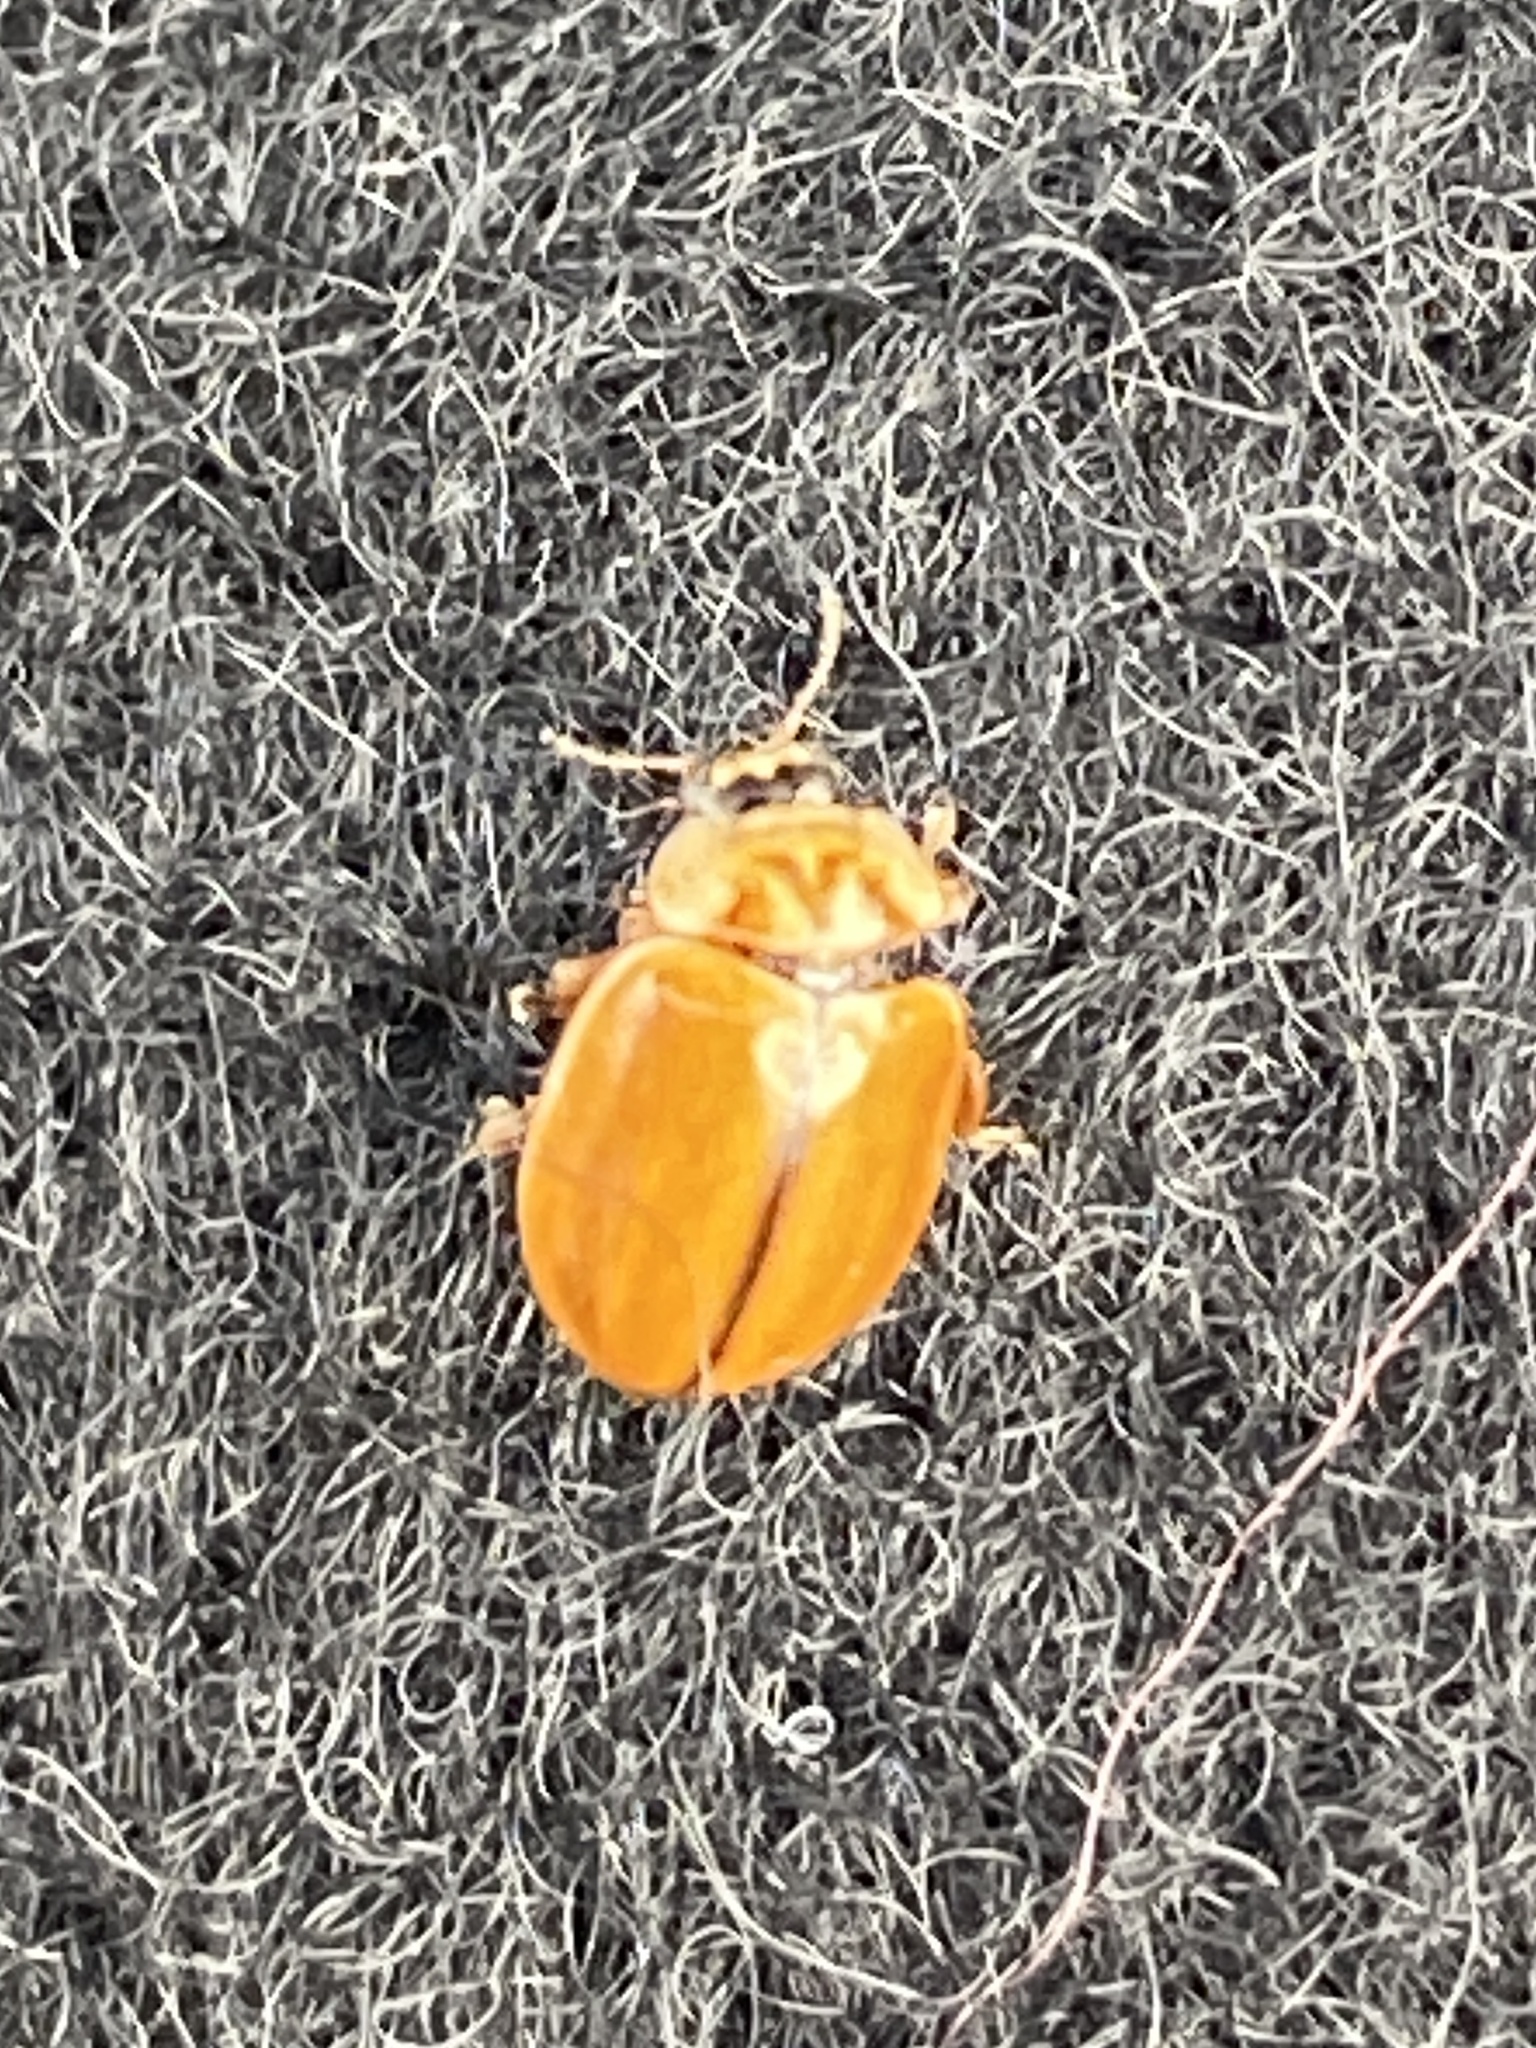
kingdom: Animalia
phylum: Arthropoda
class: Insecta
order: Coleoptera
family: Coccinellidae
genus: Aphidecta
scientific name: Aphidecta obliterata
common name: Larch ladybird
